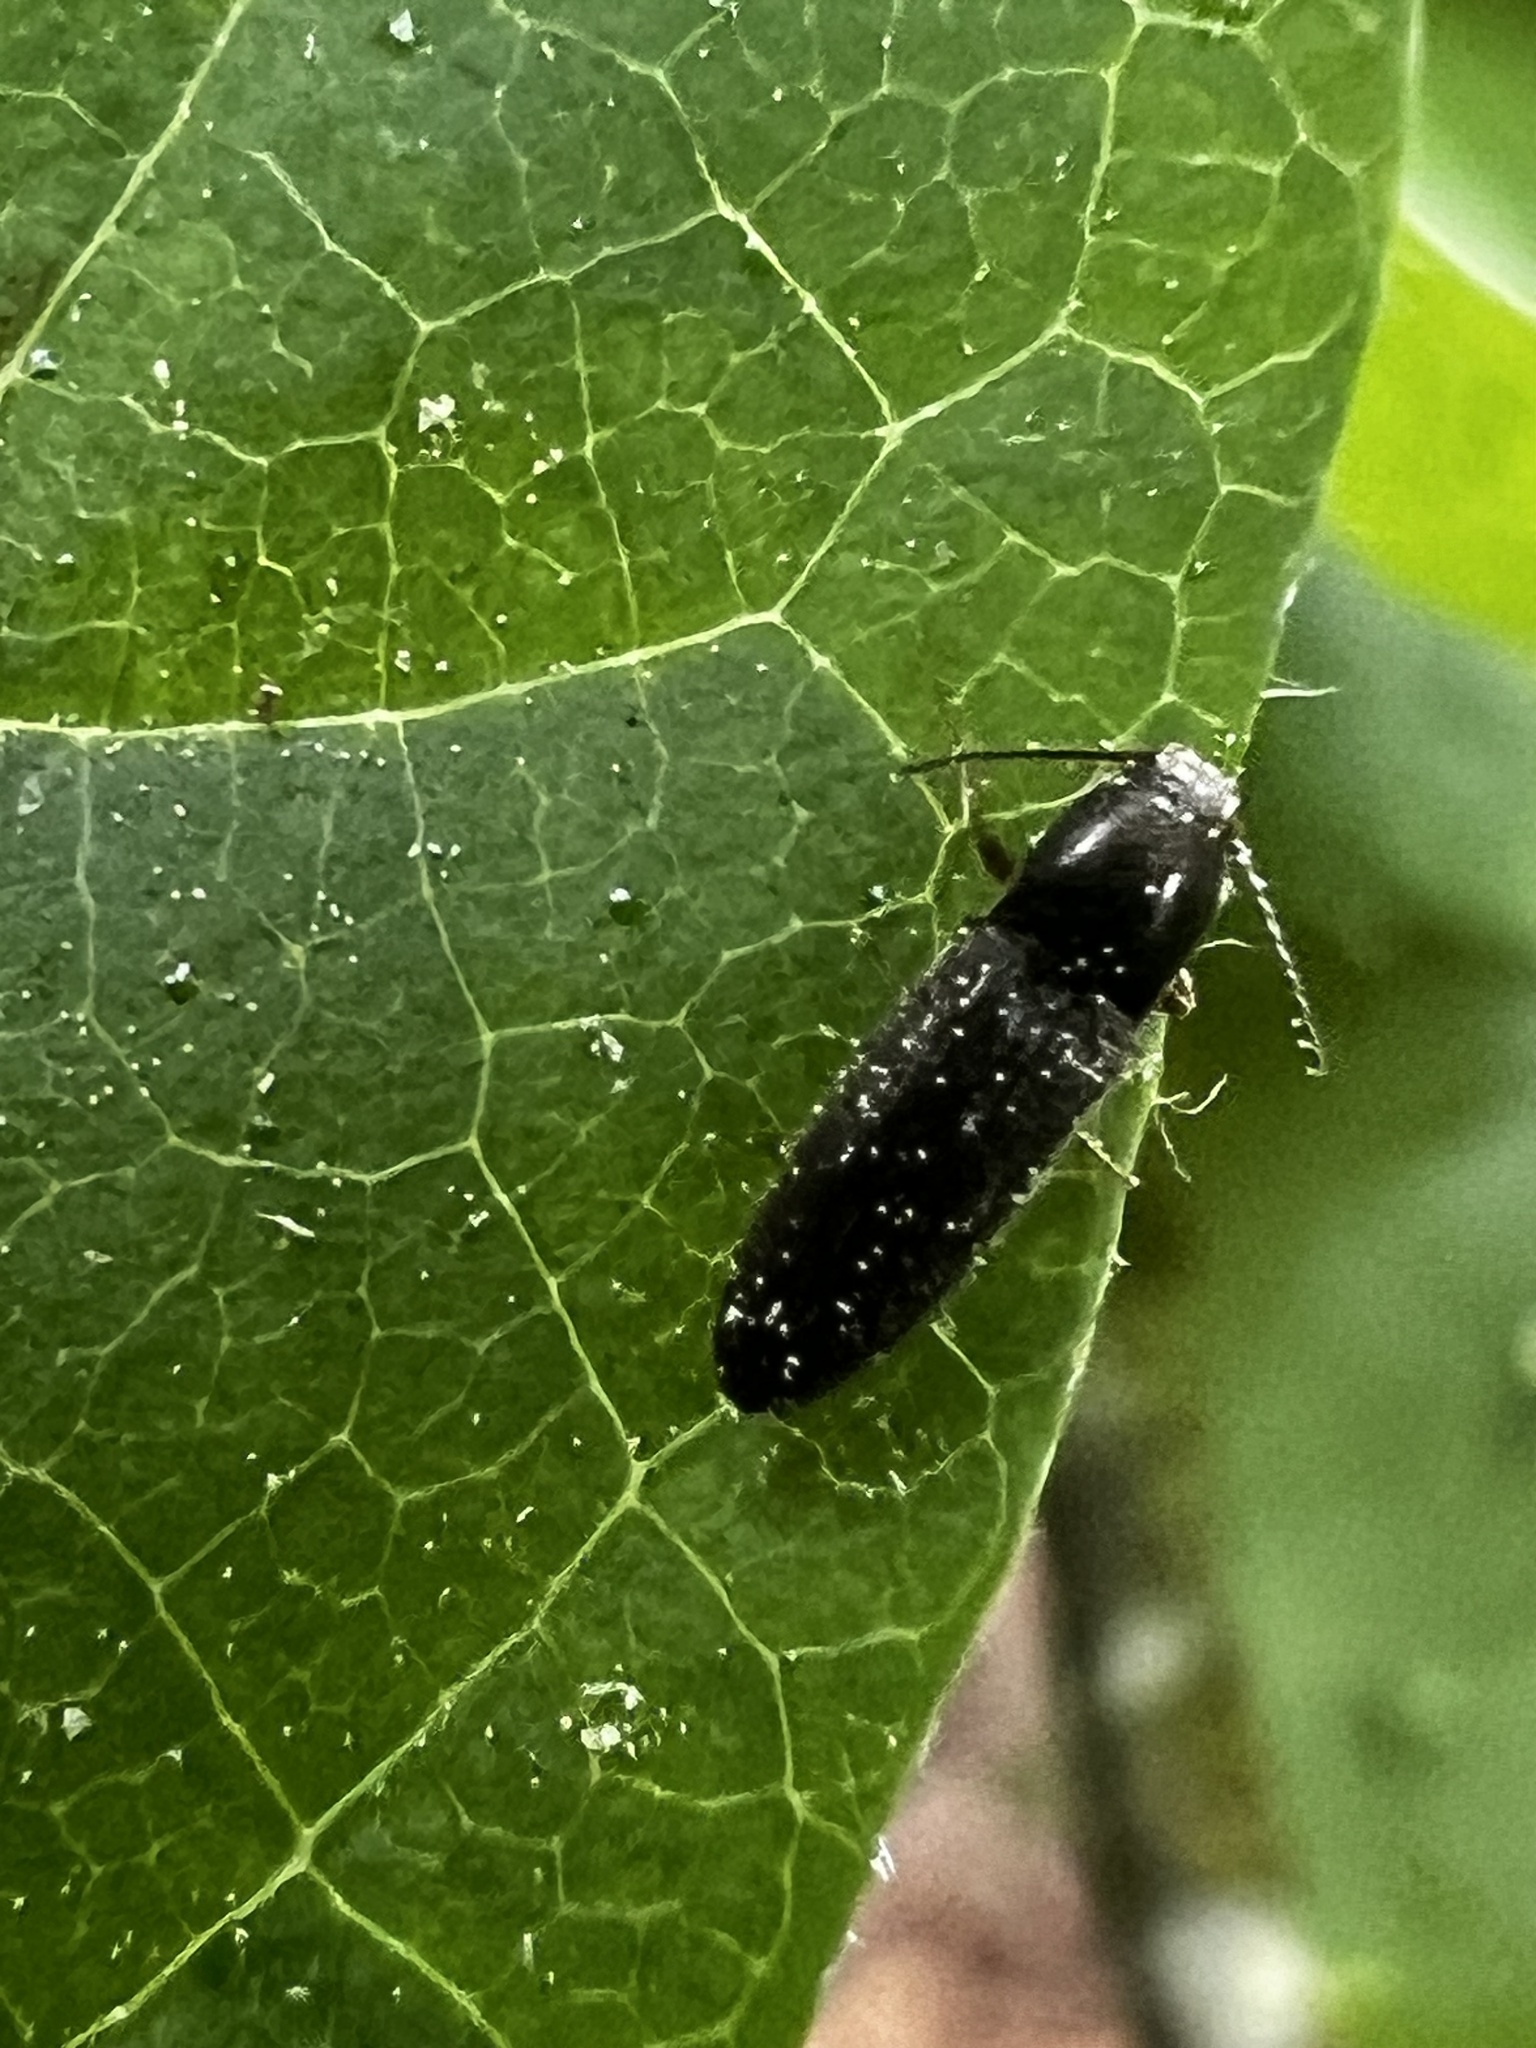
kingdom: Animalia
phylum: Arthropoda
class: Insecta
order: Coleoptera
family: Elateridae
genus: Limonius
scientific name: Limonius quercinus
